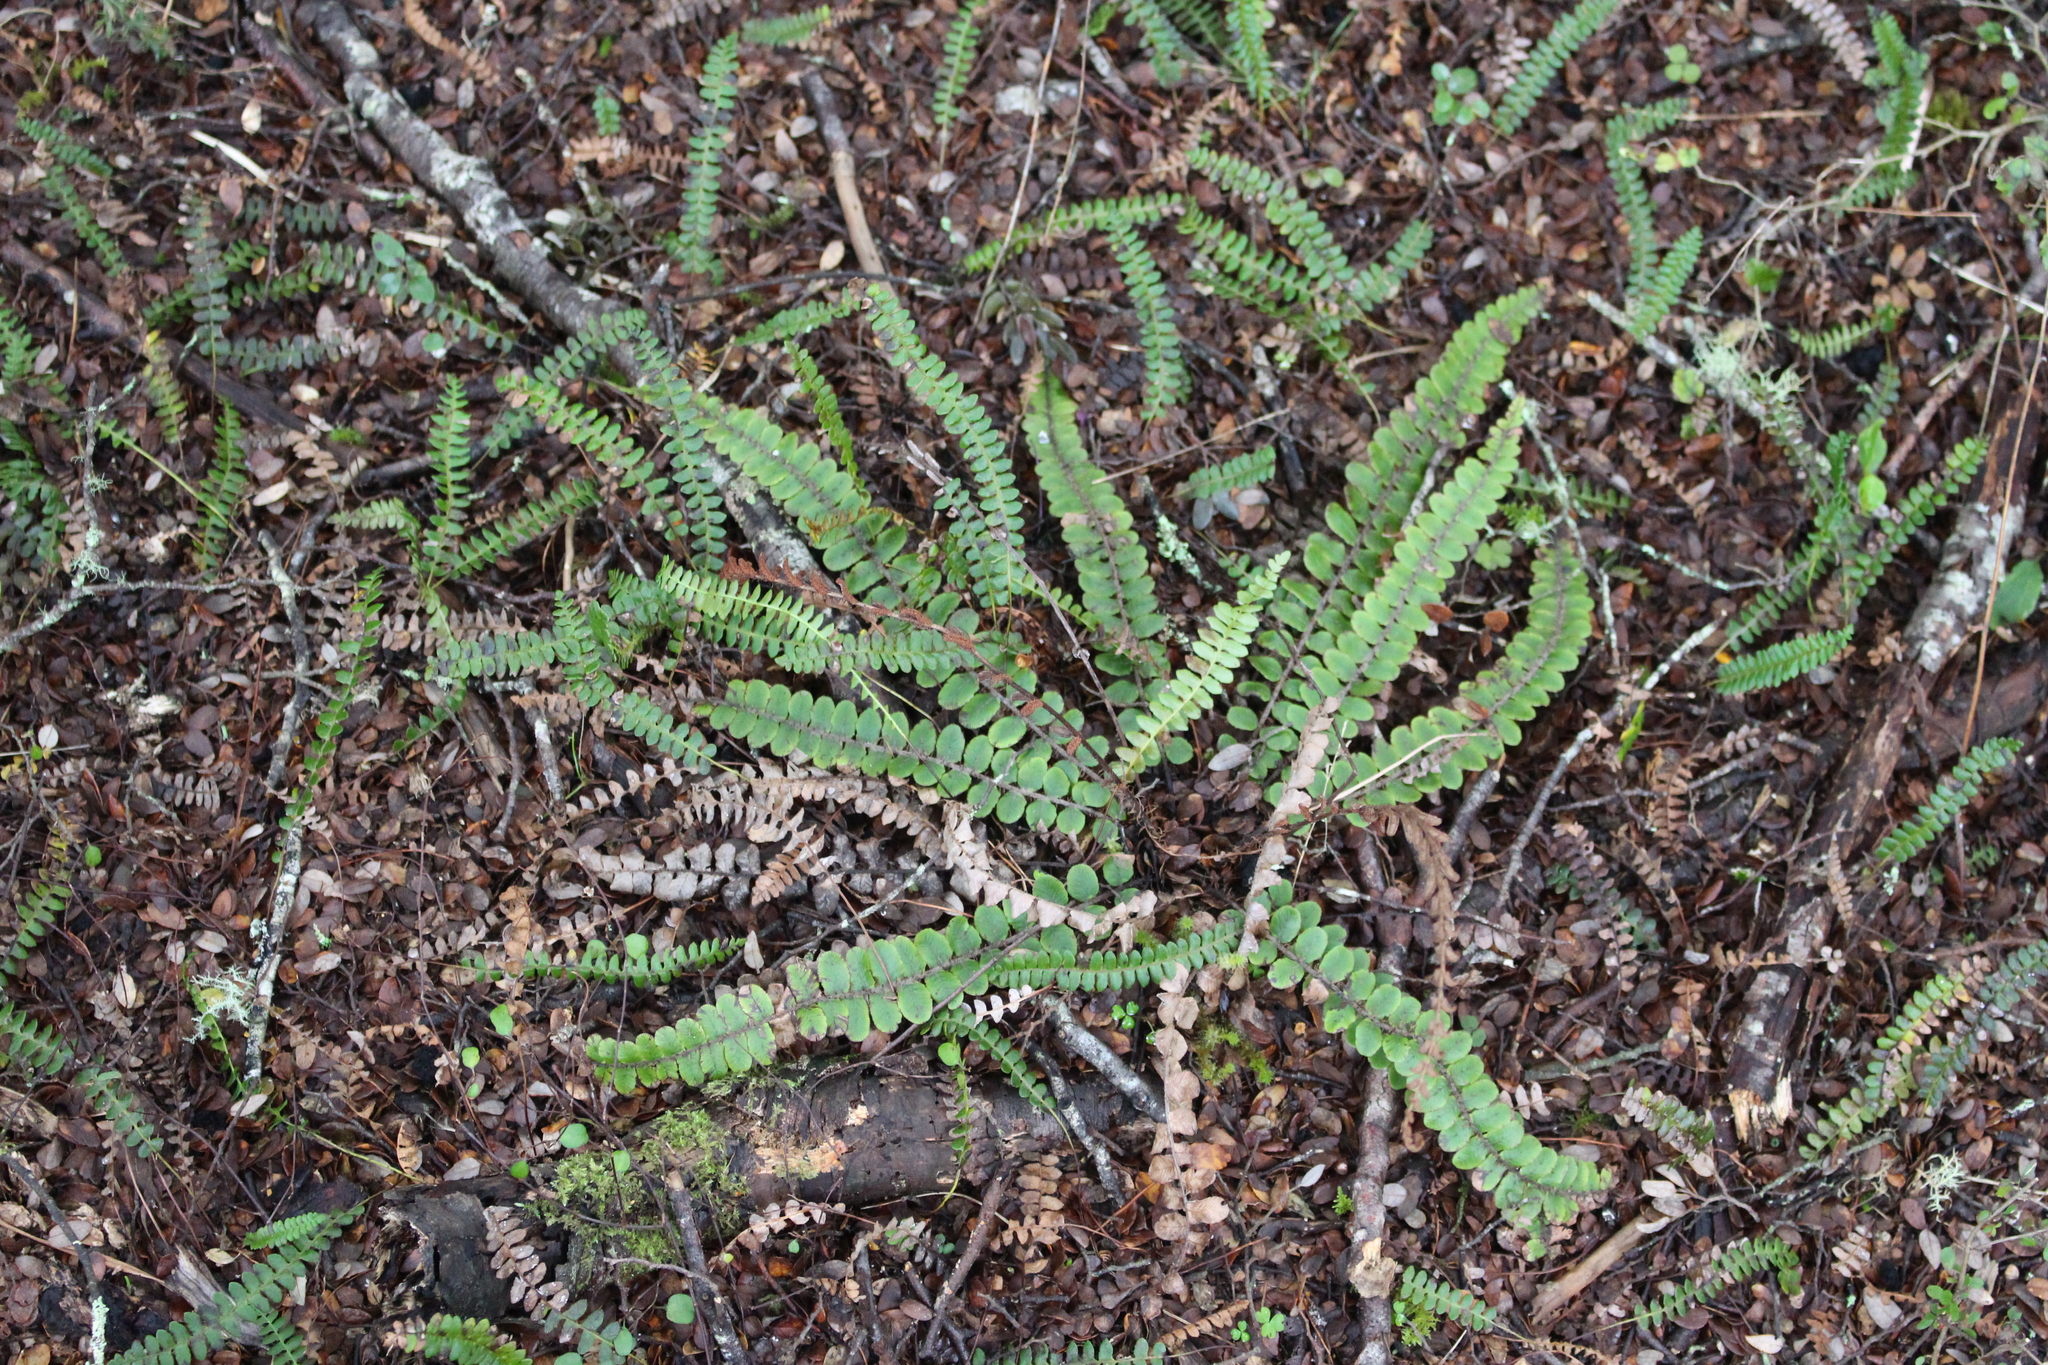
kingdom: Plantae
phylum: Tracheophyta
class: Polypodiopsida
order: Polypodiales
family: Blechnaceae
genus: Cranfillia
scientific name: Cranfillia fluviatilis
